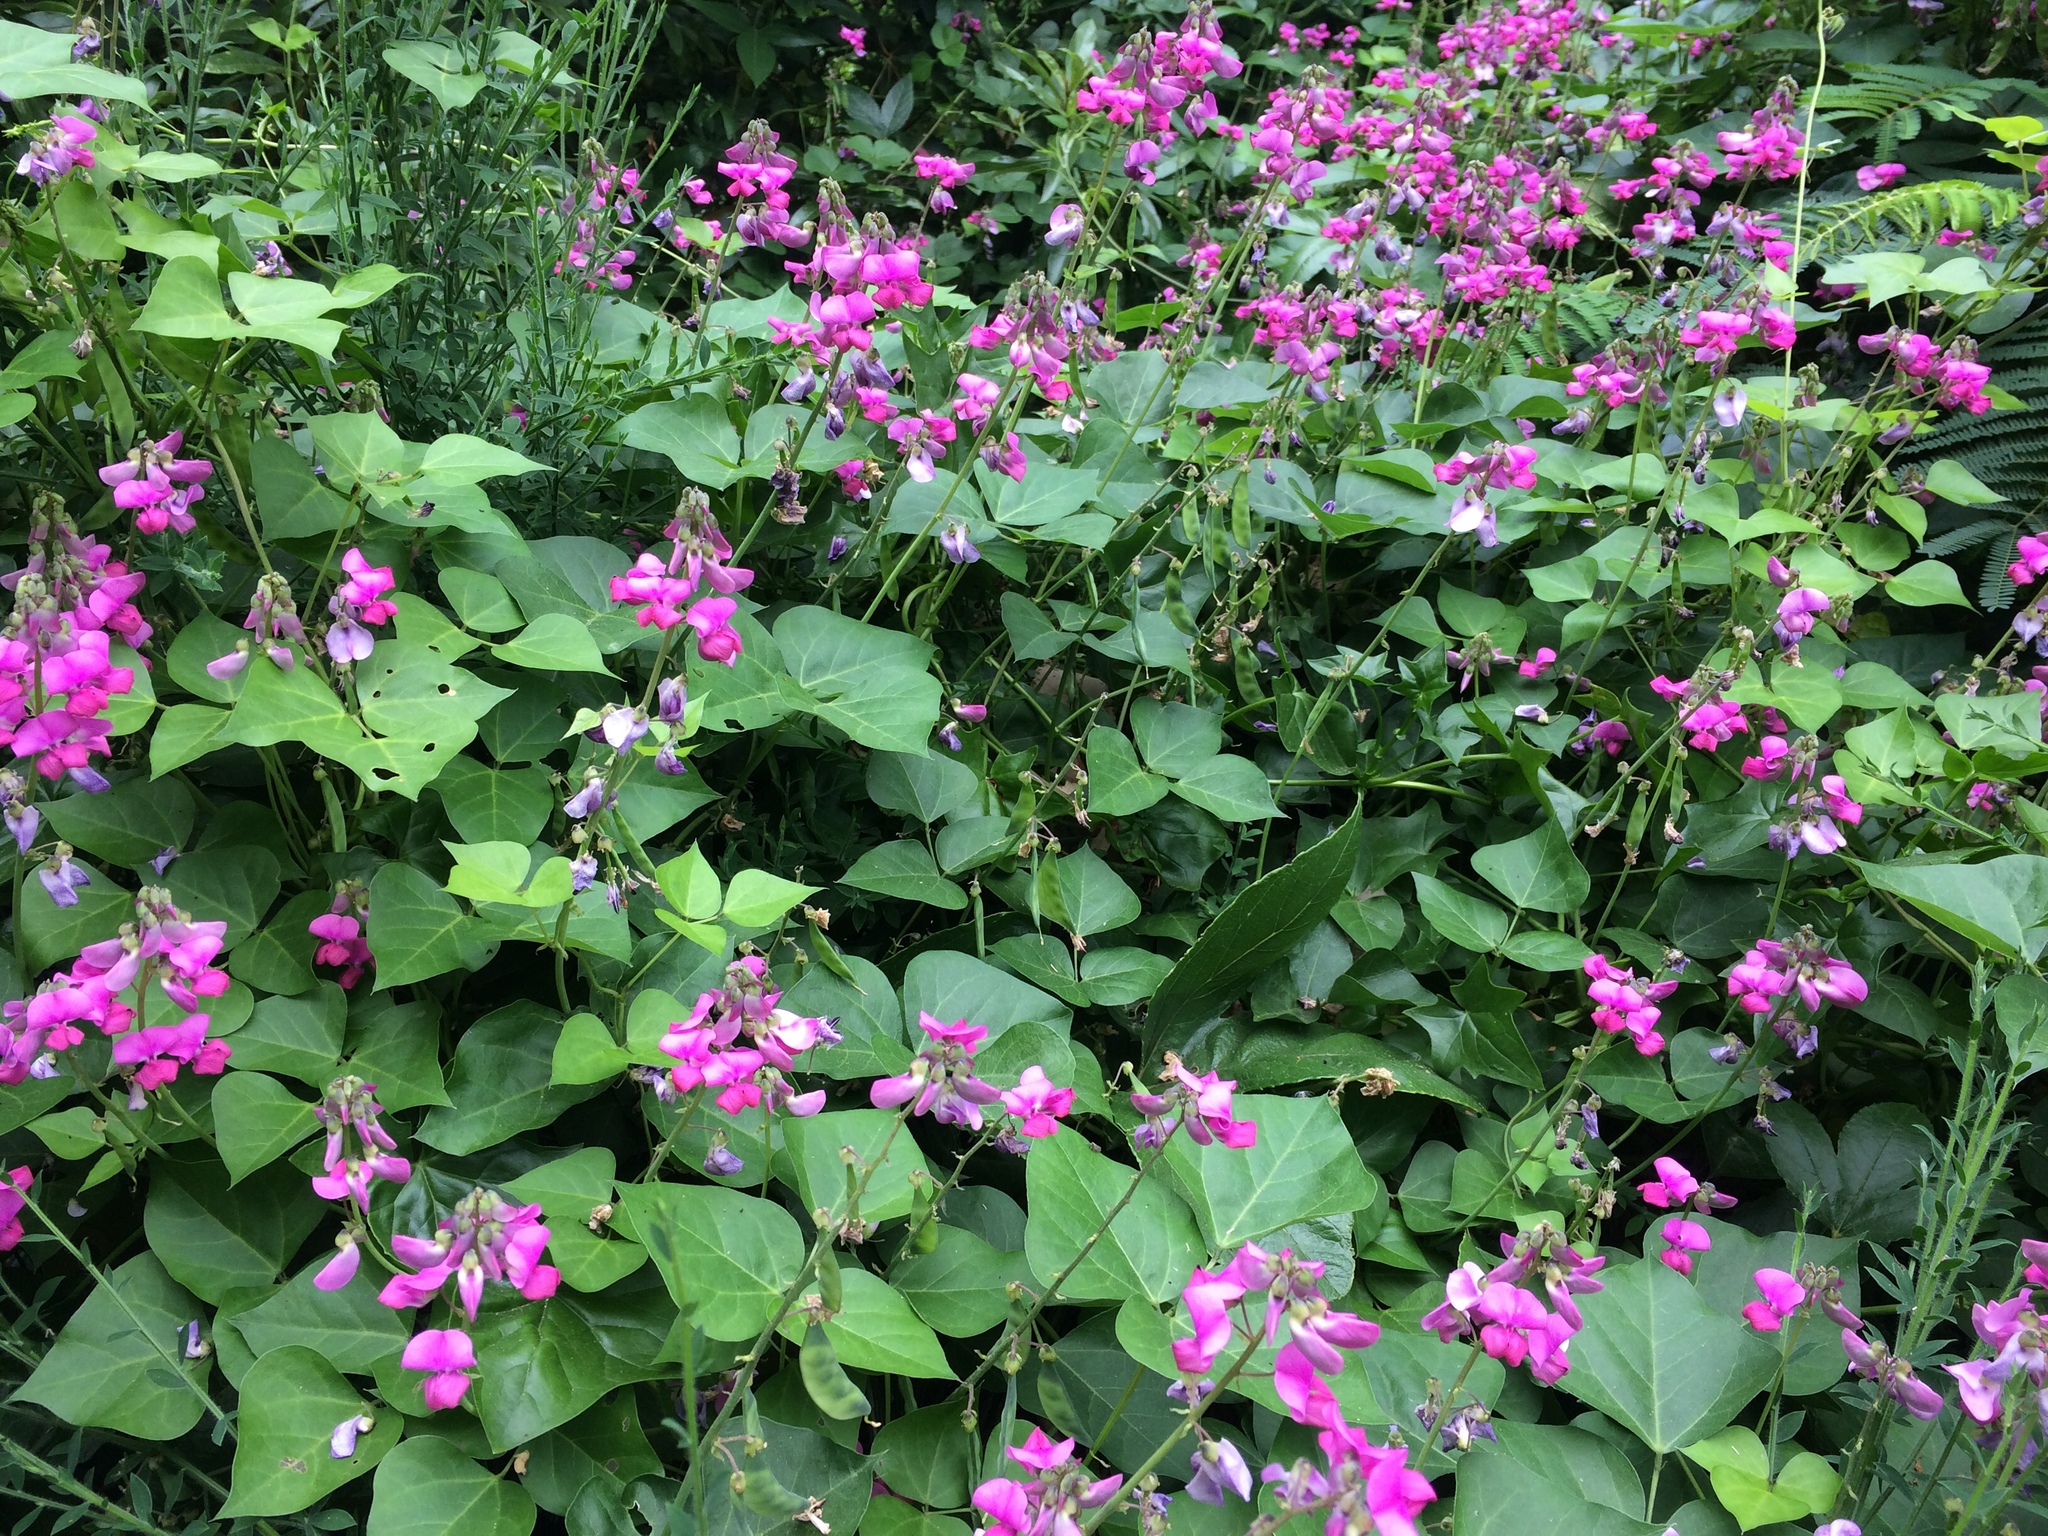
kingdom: Plantae
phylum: Tracheophyta
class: Magnoliopsida
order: Fabales
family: Fabaceae
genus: Dipogon
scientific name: Dipogon lignosus
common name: Okie bean
